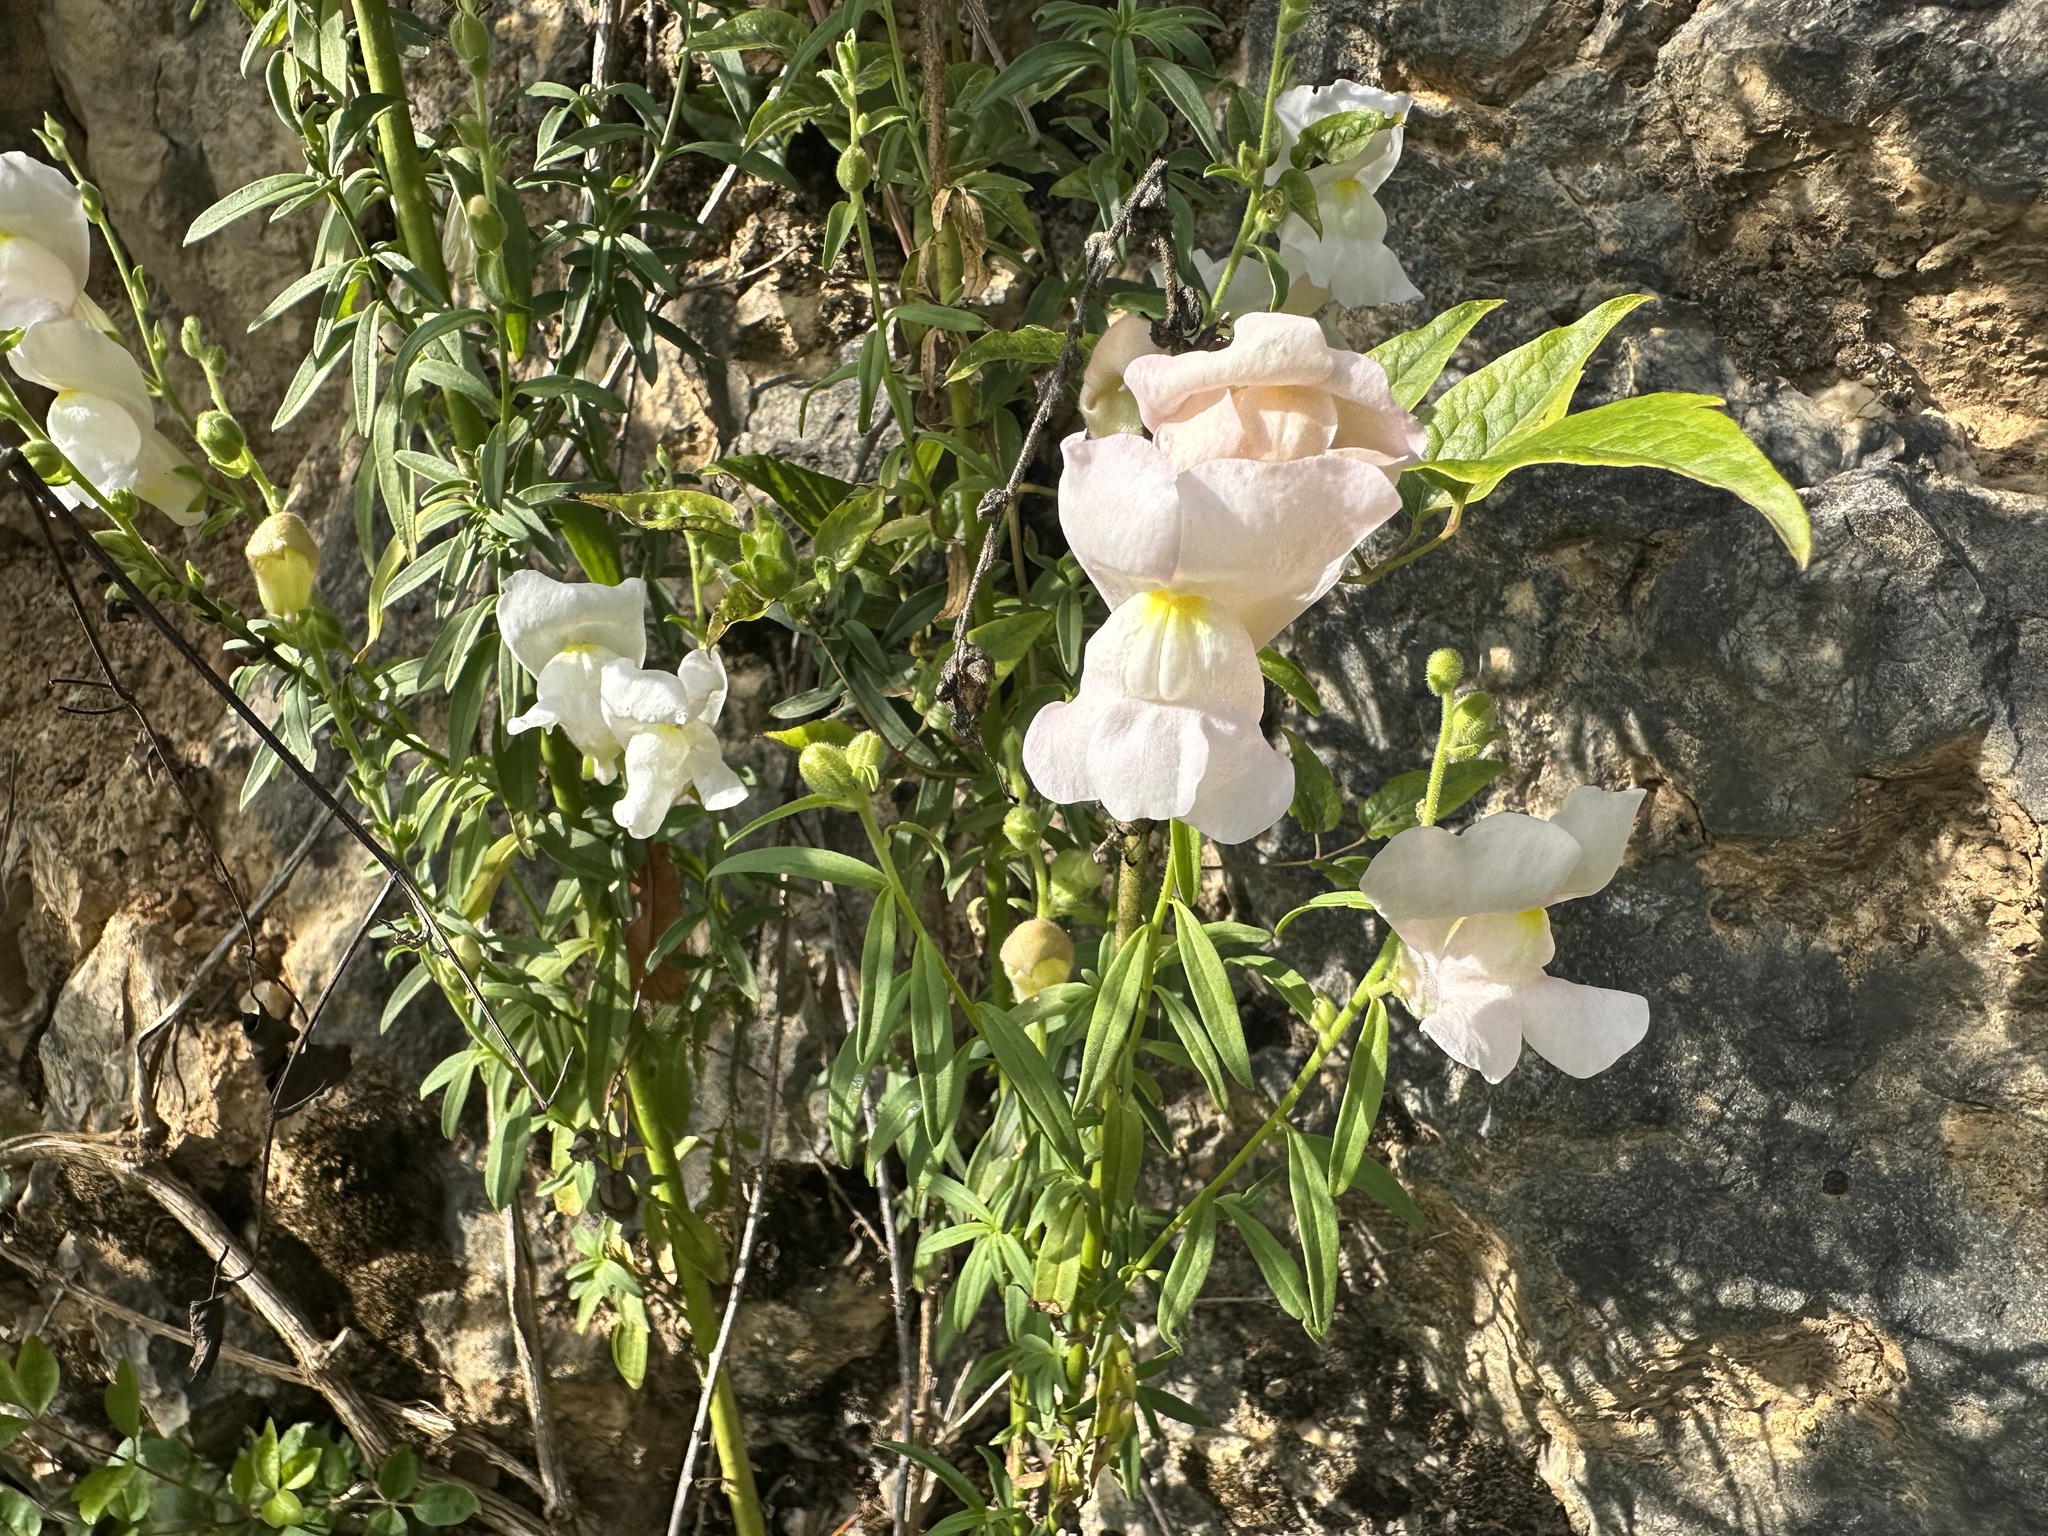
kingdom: Plantae
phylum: Tracheophyta
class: Magnoliopsida
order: Lamiales
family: Plantaginaceae
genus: Antirrhinum
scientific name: Antirrhinum majus
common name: Snapdragon
